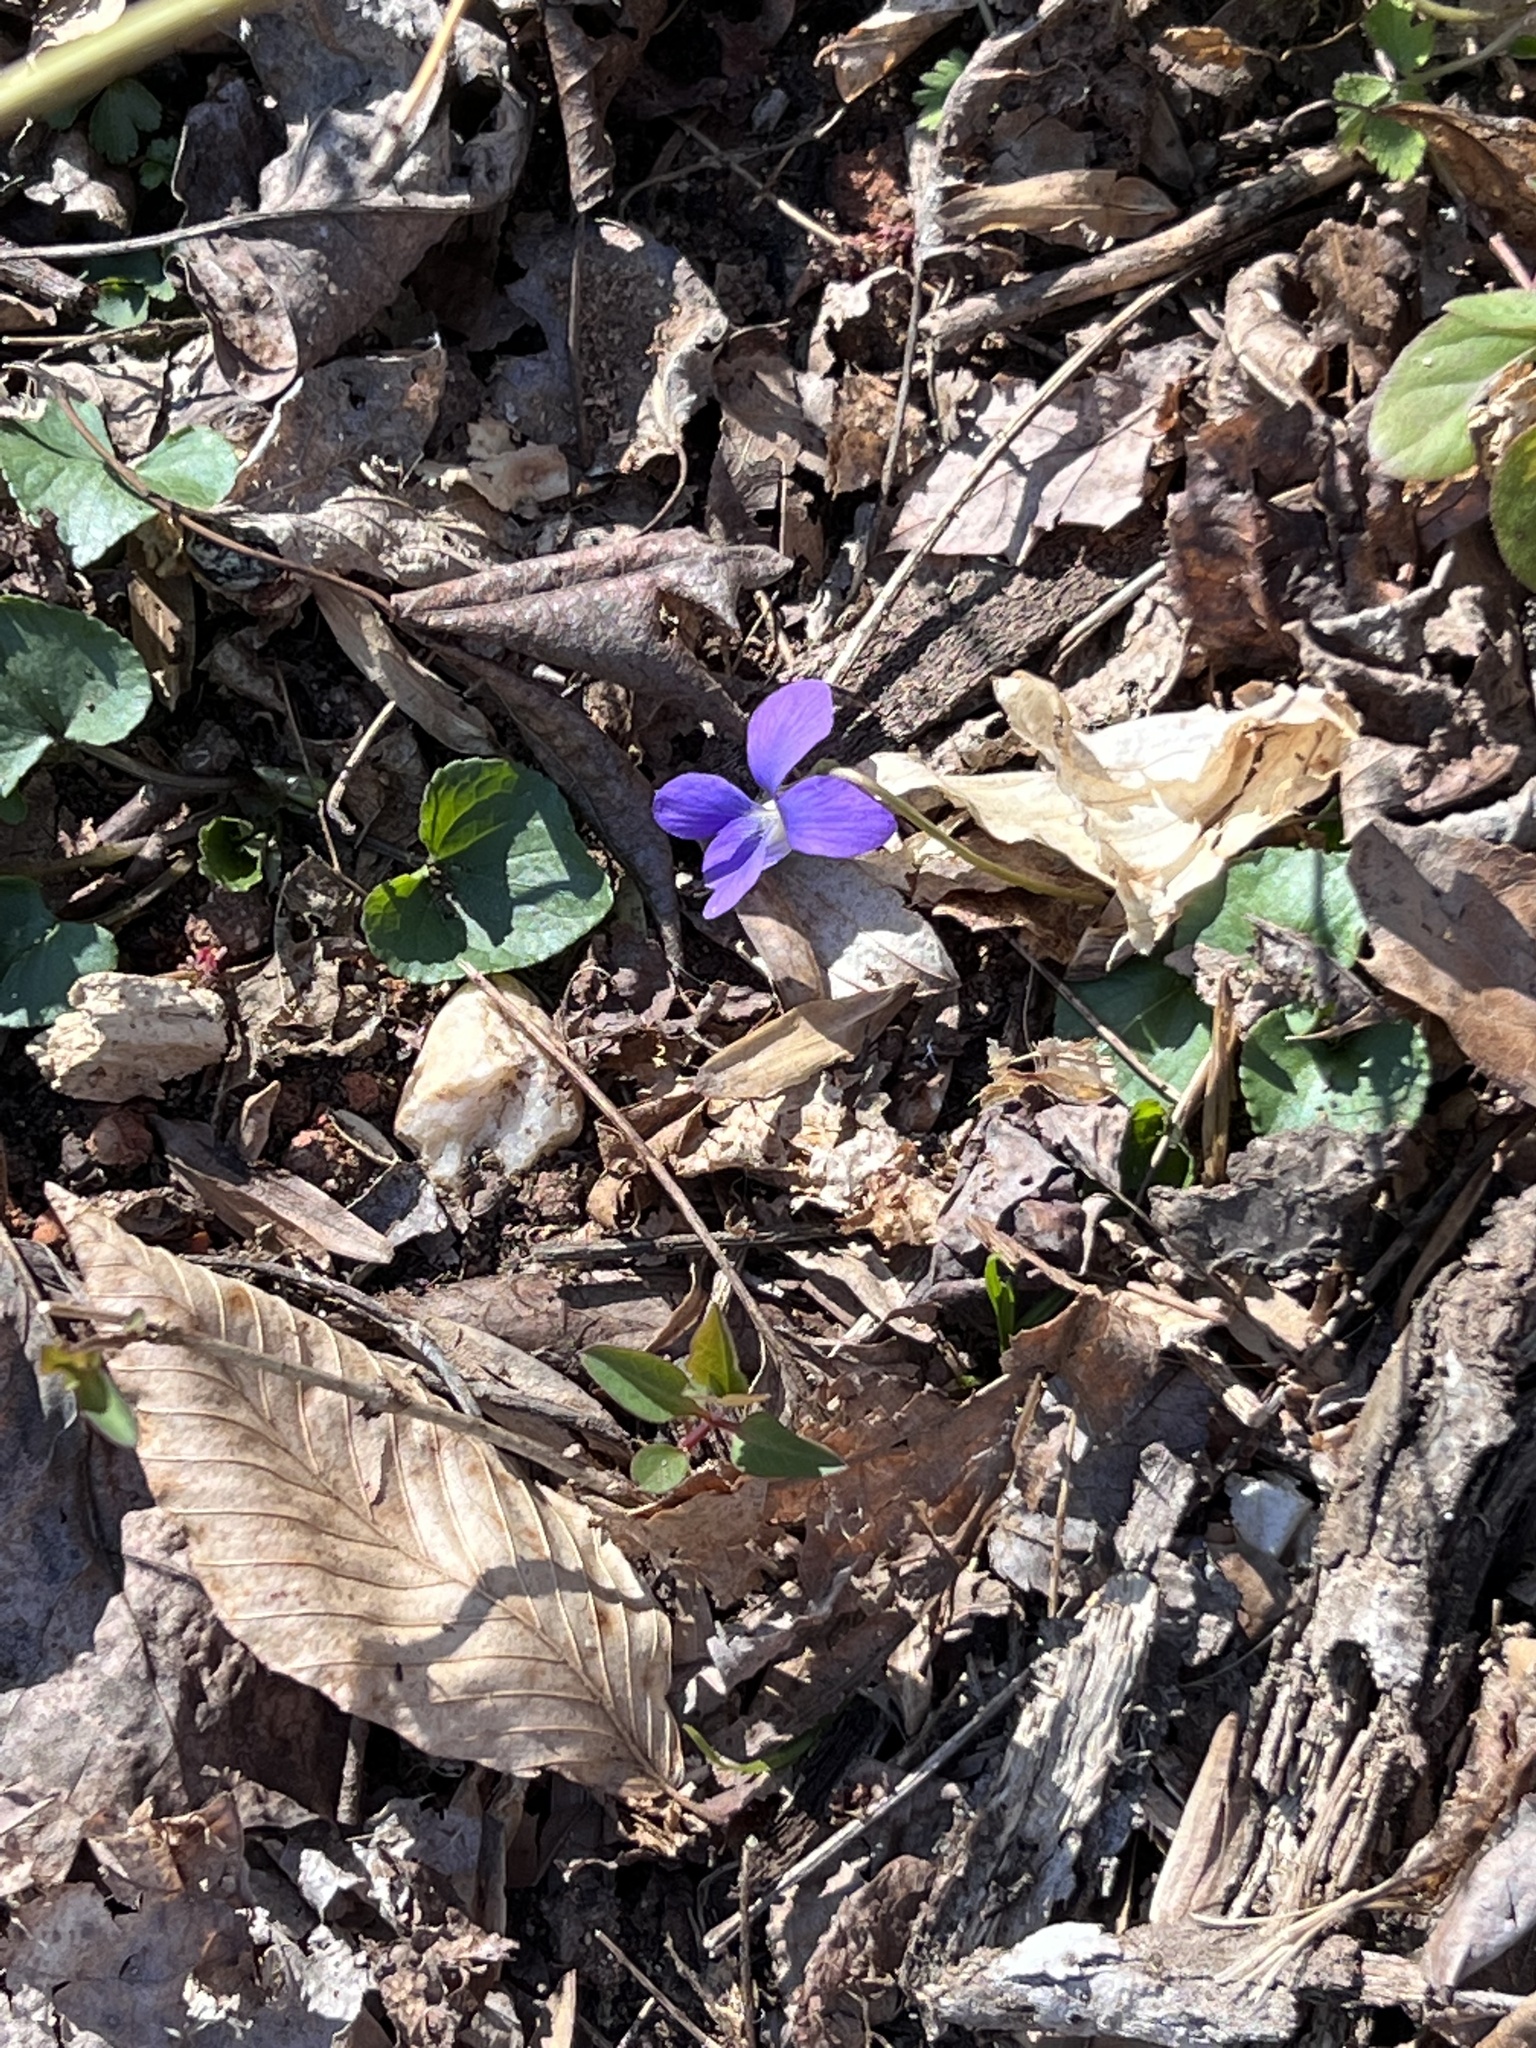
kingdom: Plantae
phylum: Tracheophyta
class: Magnoliopsida
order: Malpighiales
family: Violaceae
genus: Viola
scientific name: Viola sororia
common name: Dooryard violet
